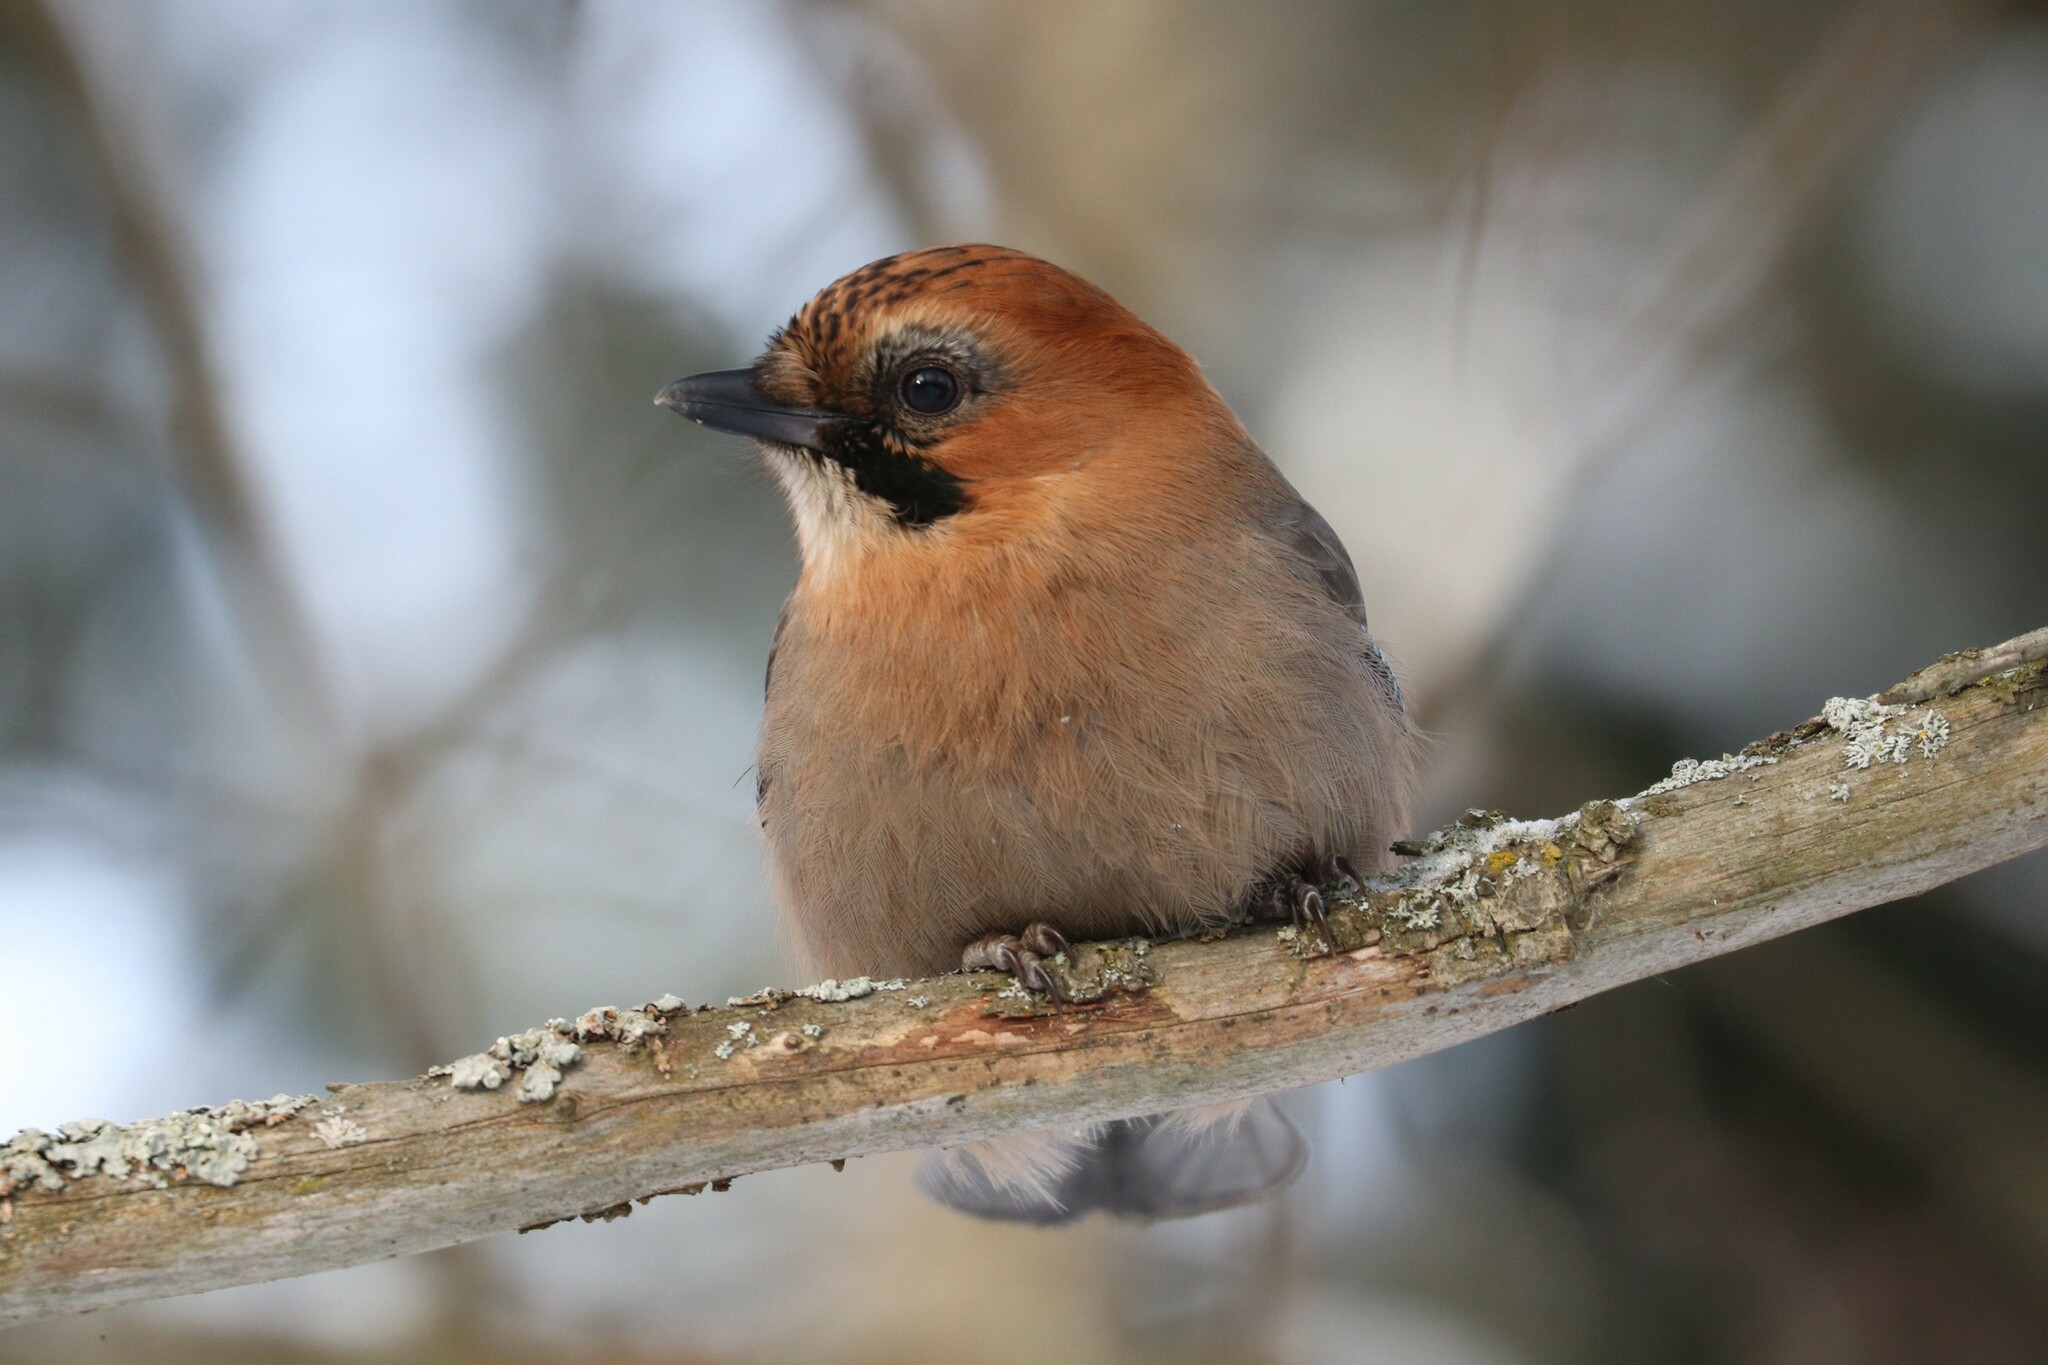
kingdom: Animalia
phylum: Chordata
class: Aves
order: Passeriformes
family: Corvidae
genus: Garrulus
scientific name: Garrulus glandarius
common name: Eurasian jay
